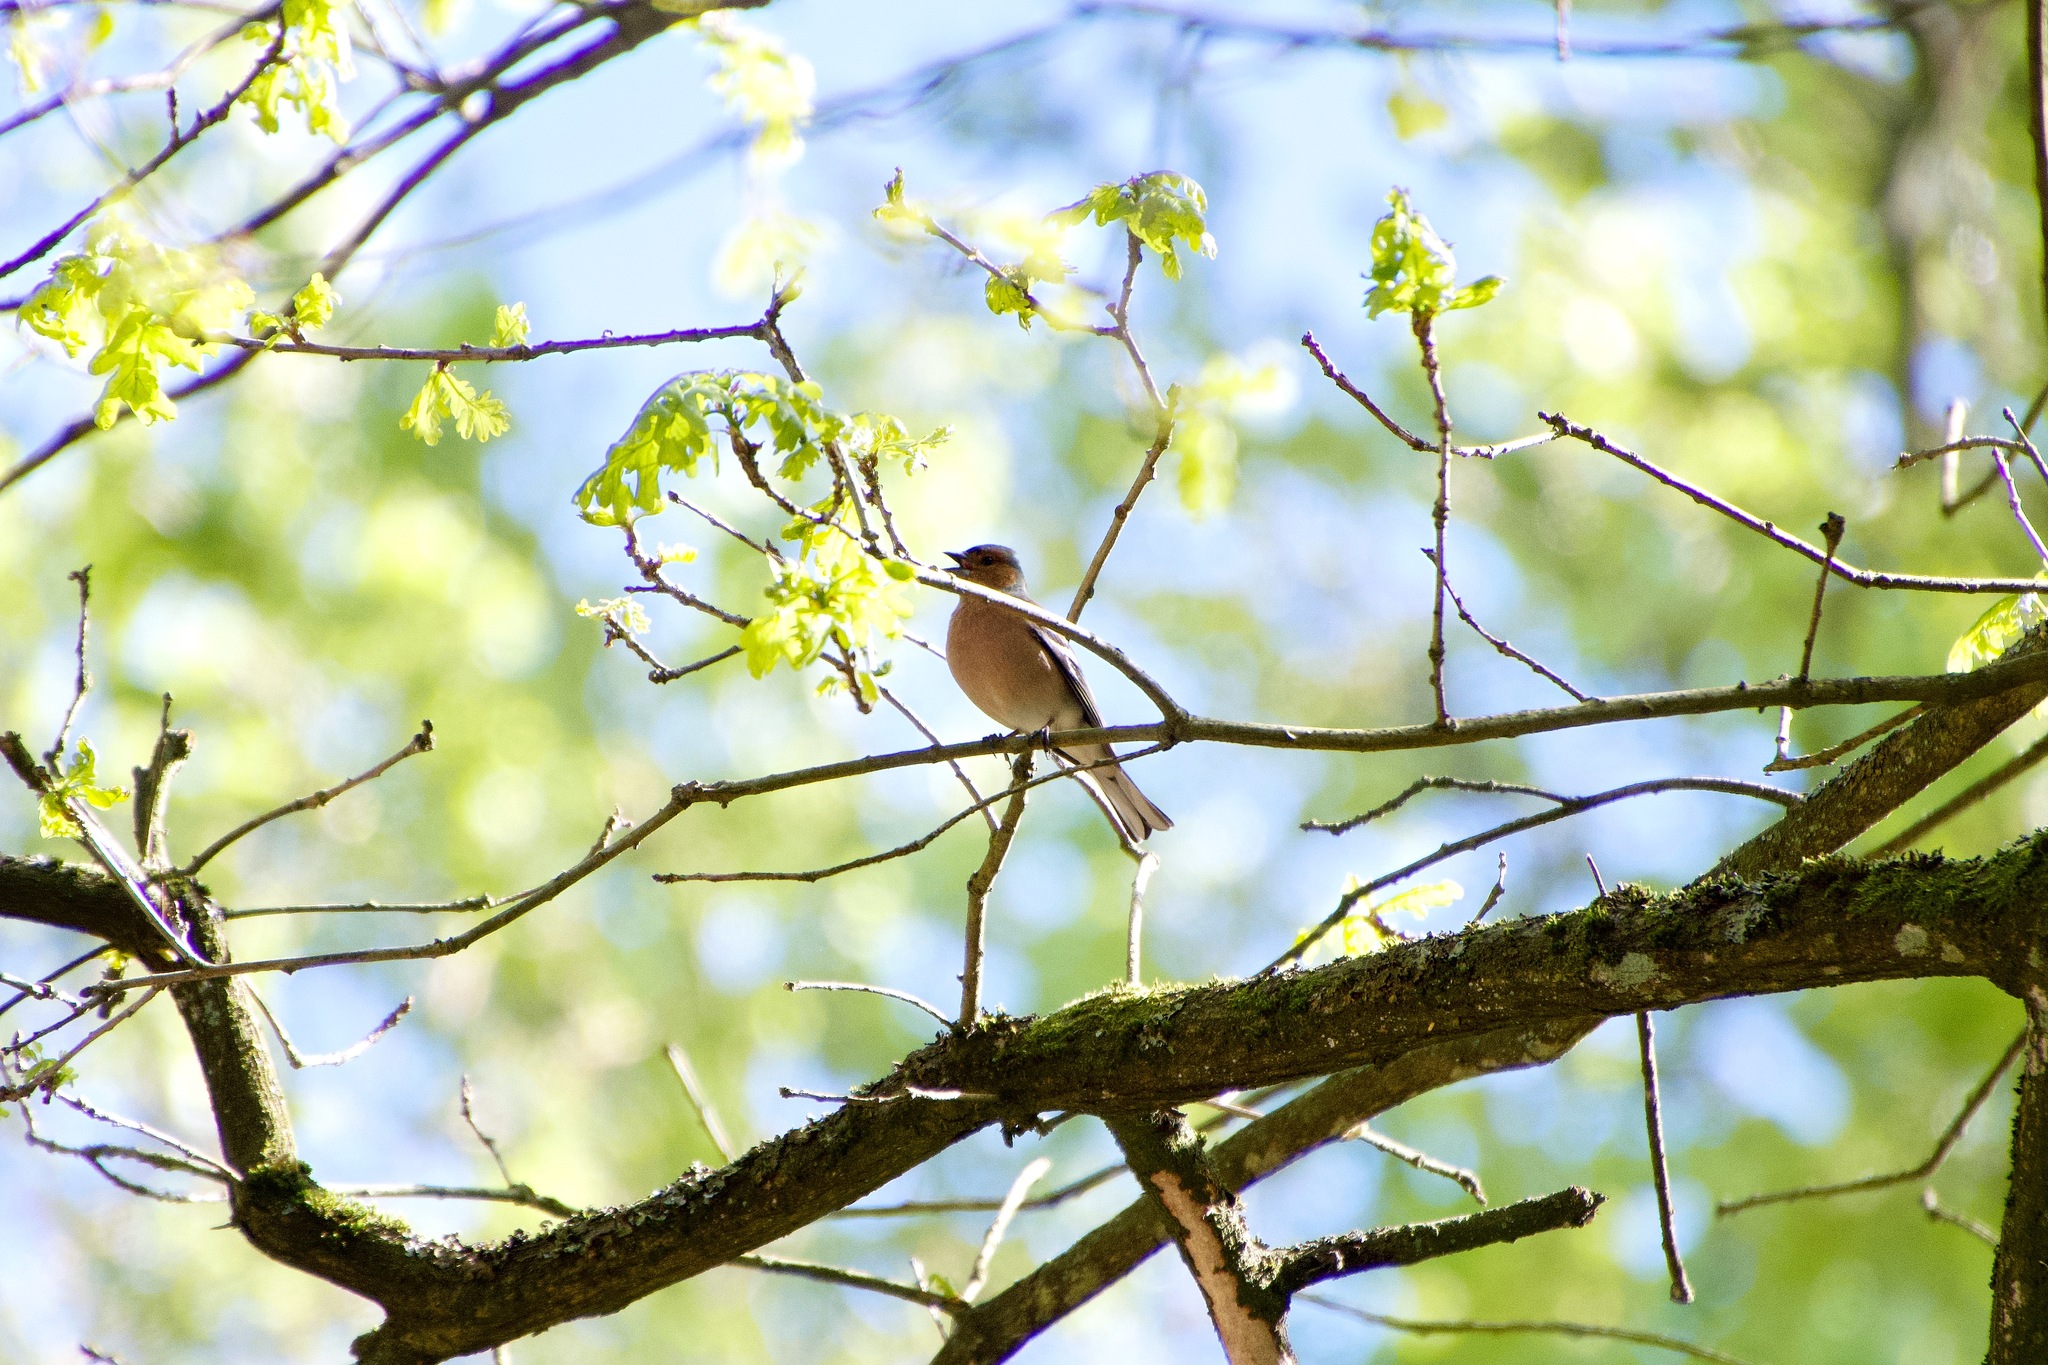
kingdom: Animalia
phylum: Chordata
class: Aves
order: Passeriformes
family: Fringillidae
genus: Fringilla
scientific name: Fringilla coelebs
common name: Common chaffinch
